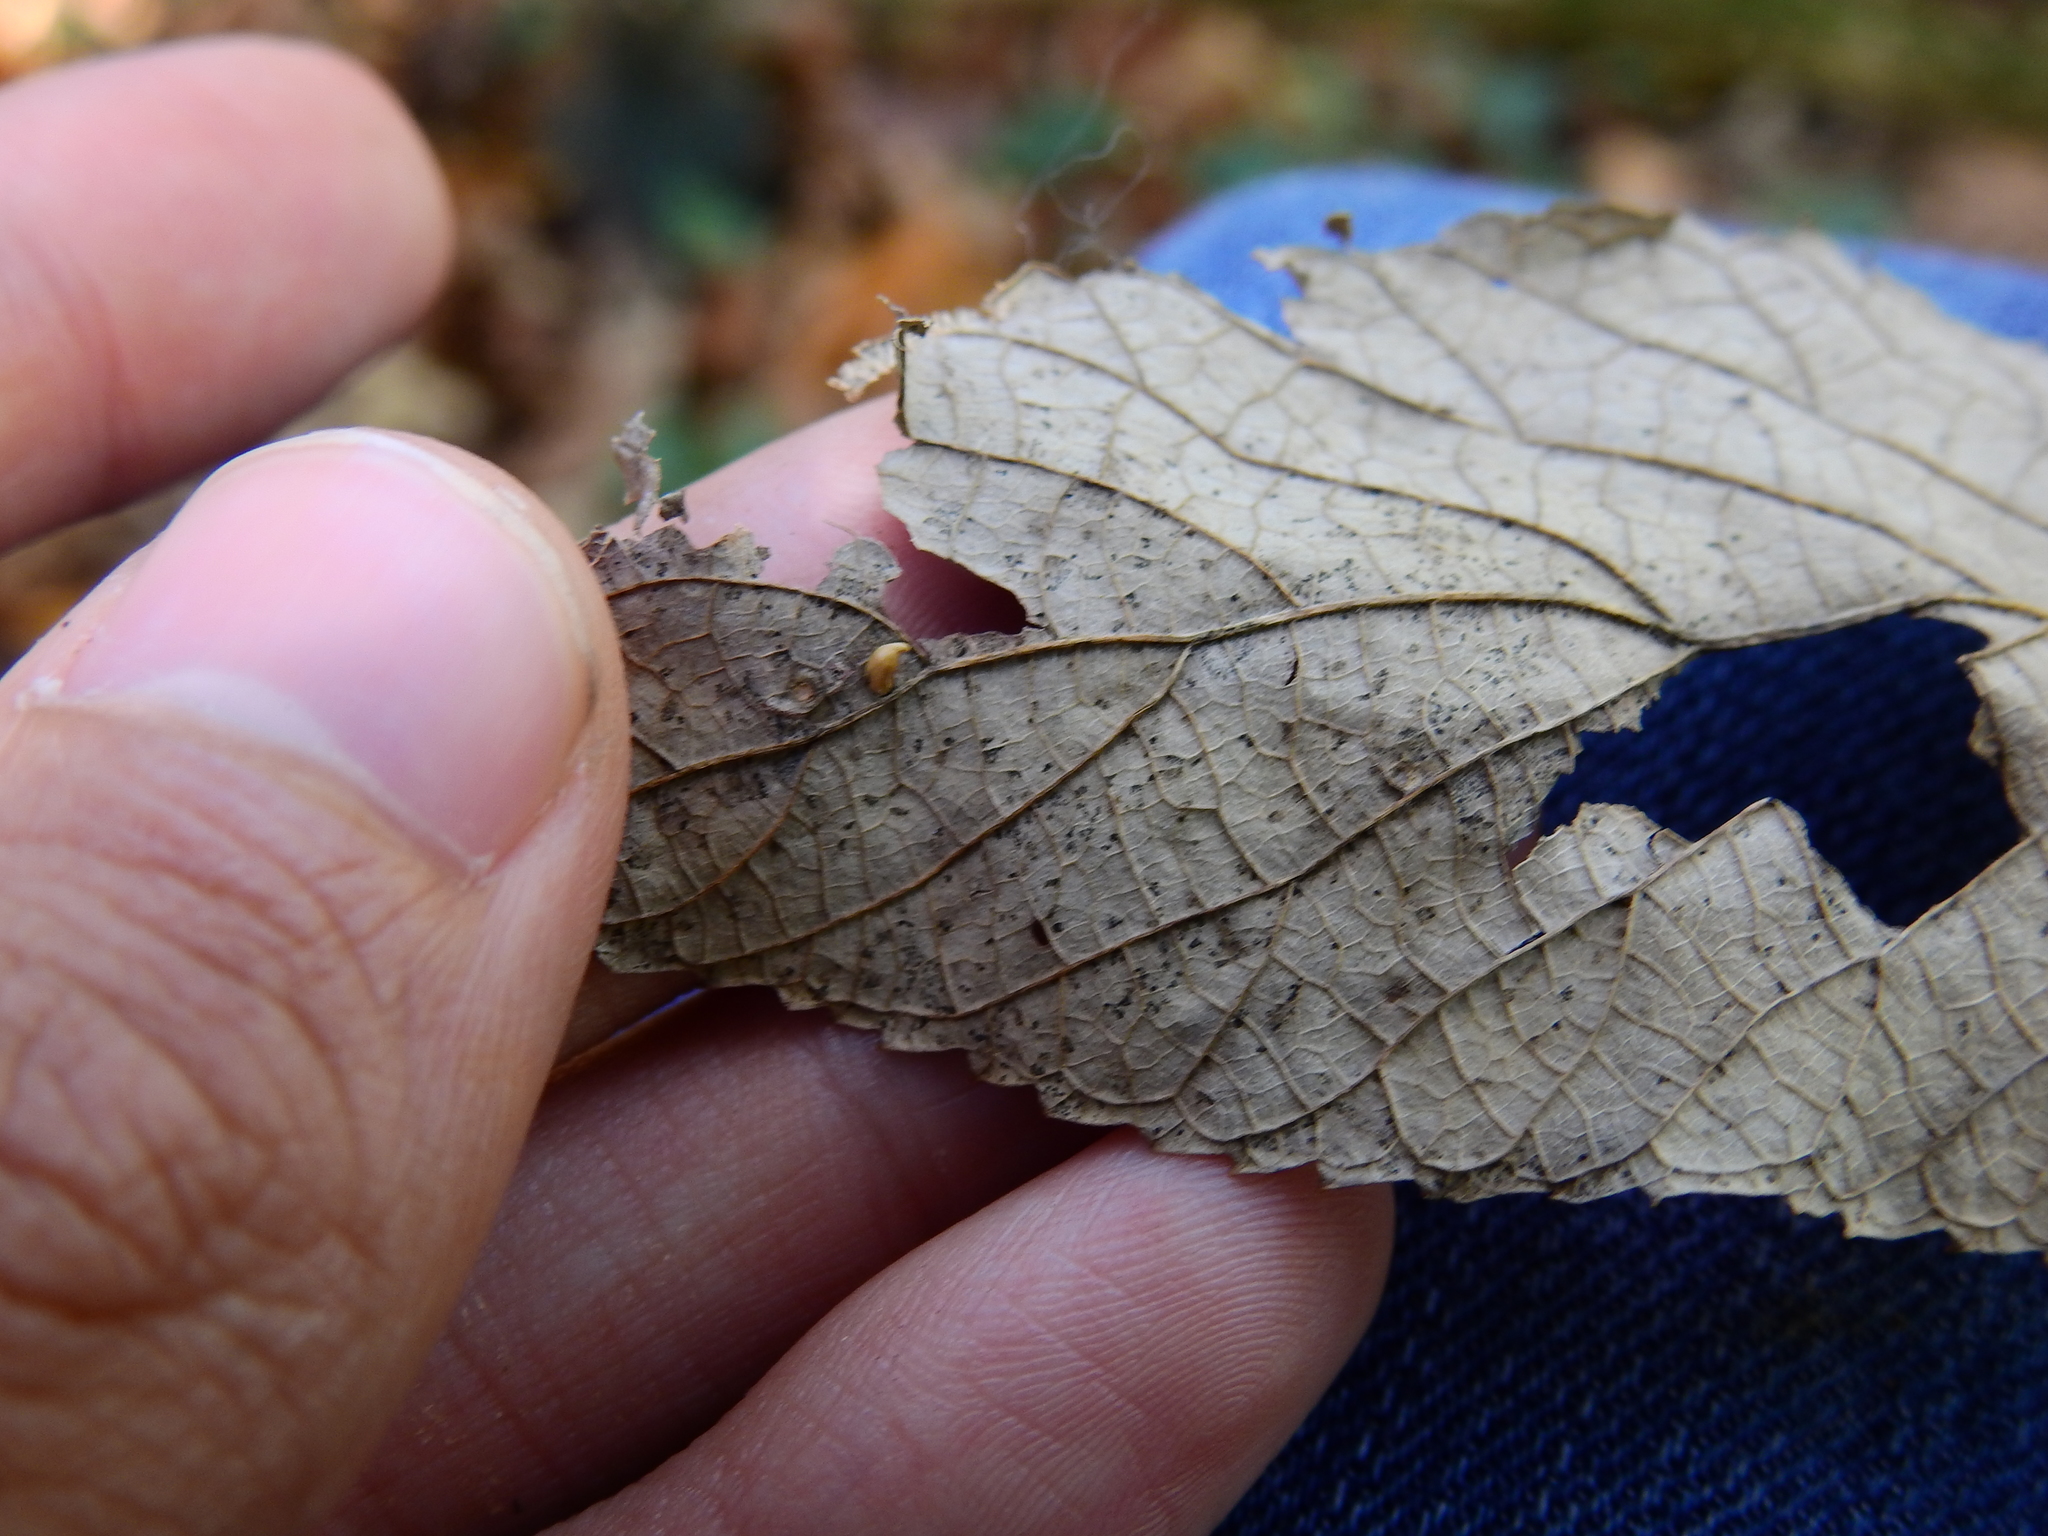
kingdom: Animalia
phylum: Arthropoda
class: Insecta
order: Diptera
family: Cecidomyiidae
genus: Celticecis
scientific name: Celticecis supina
